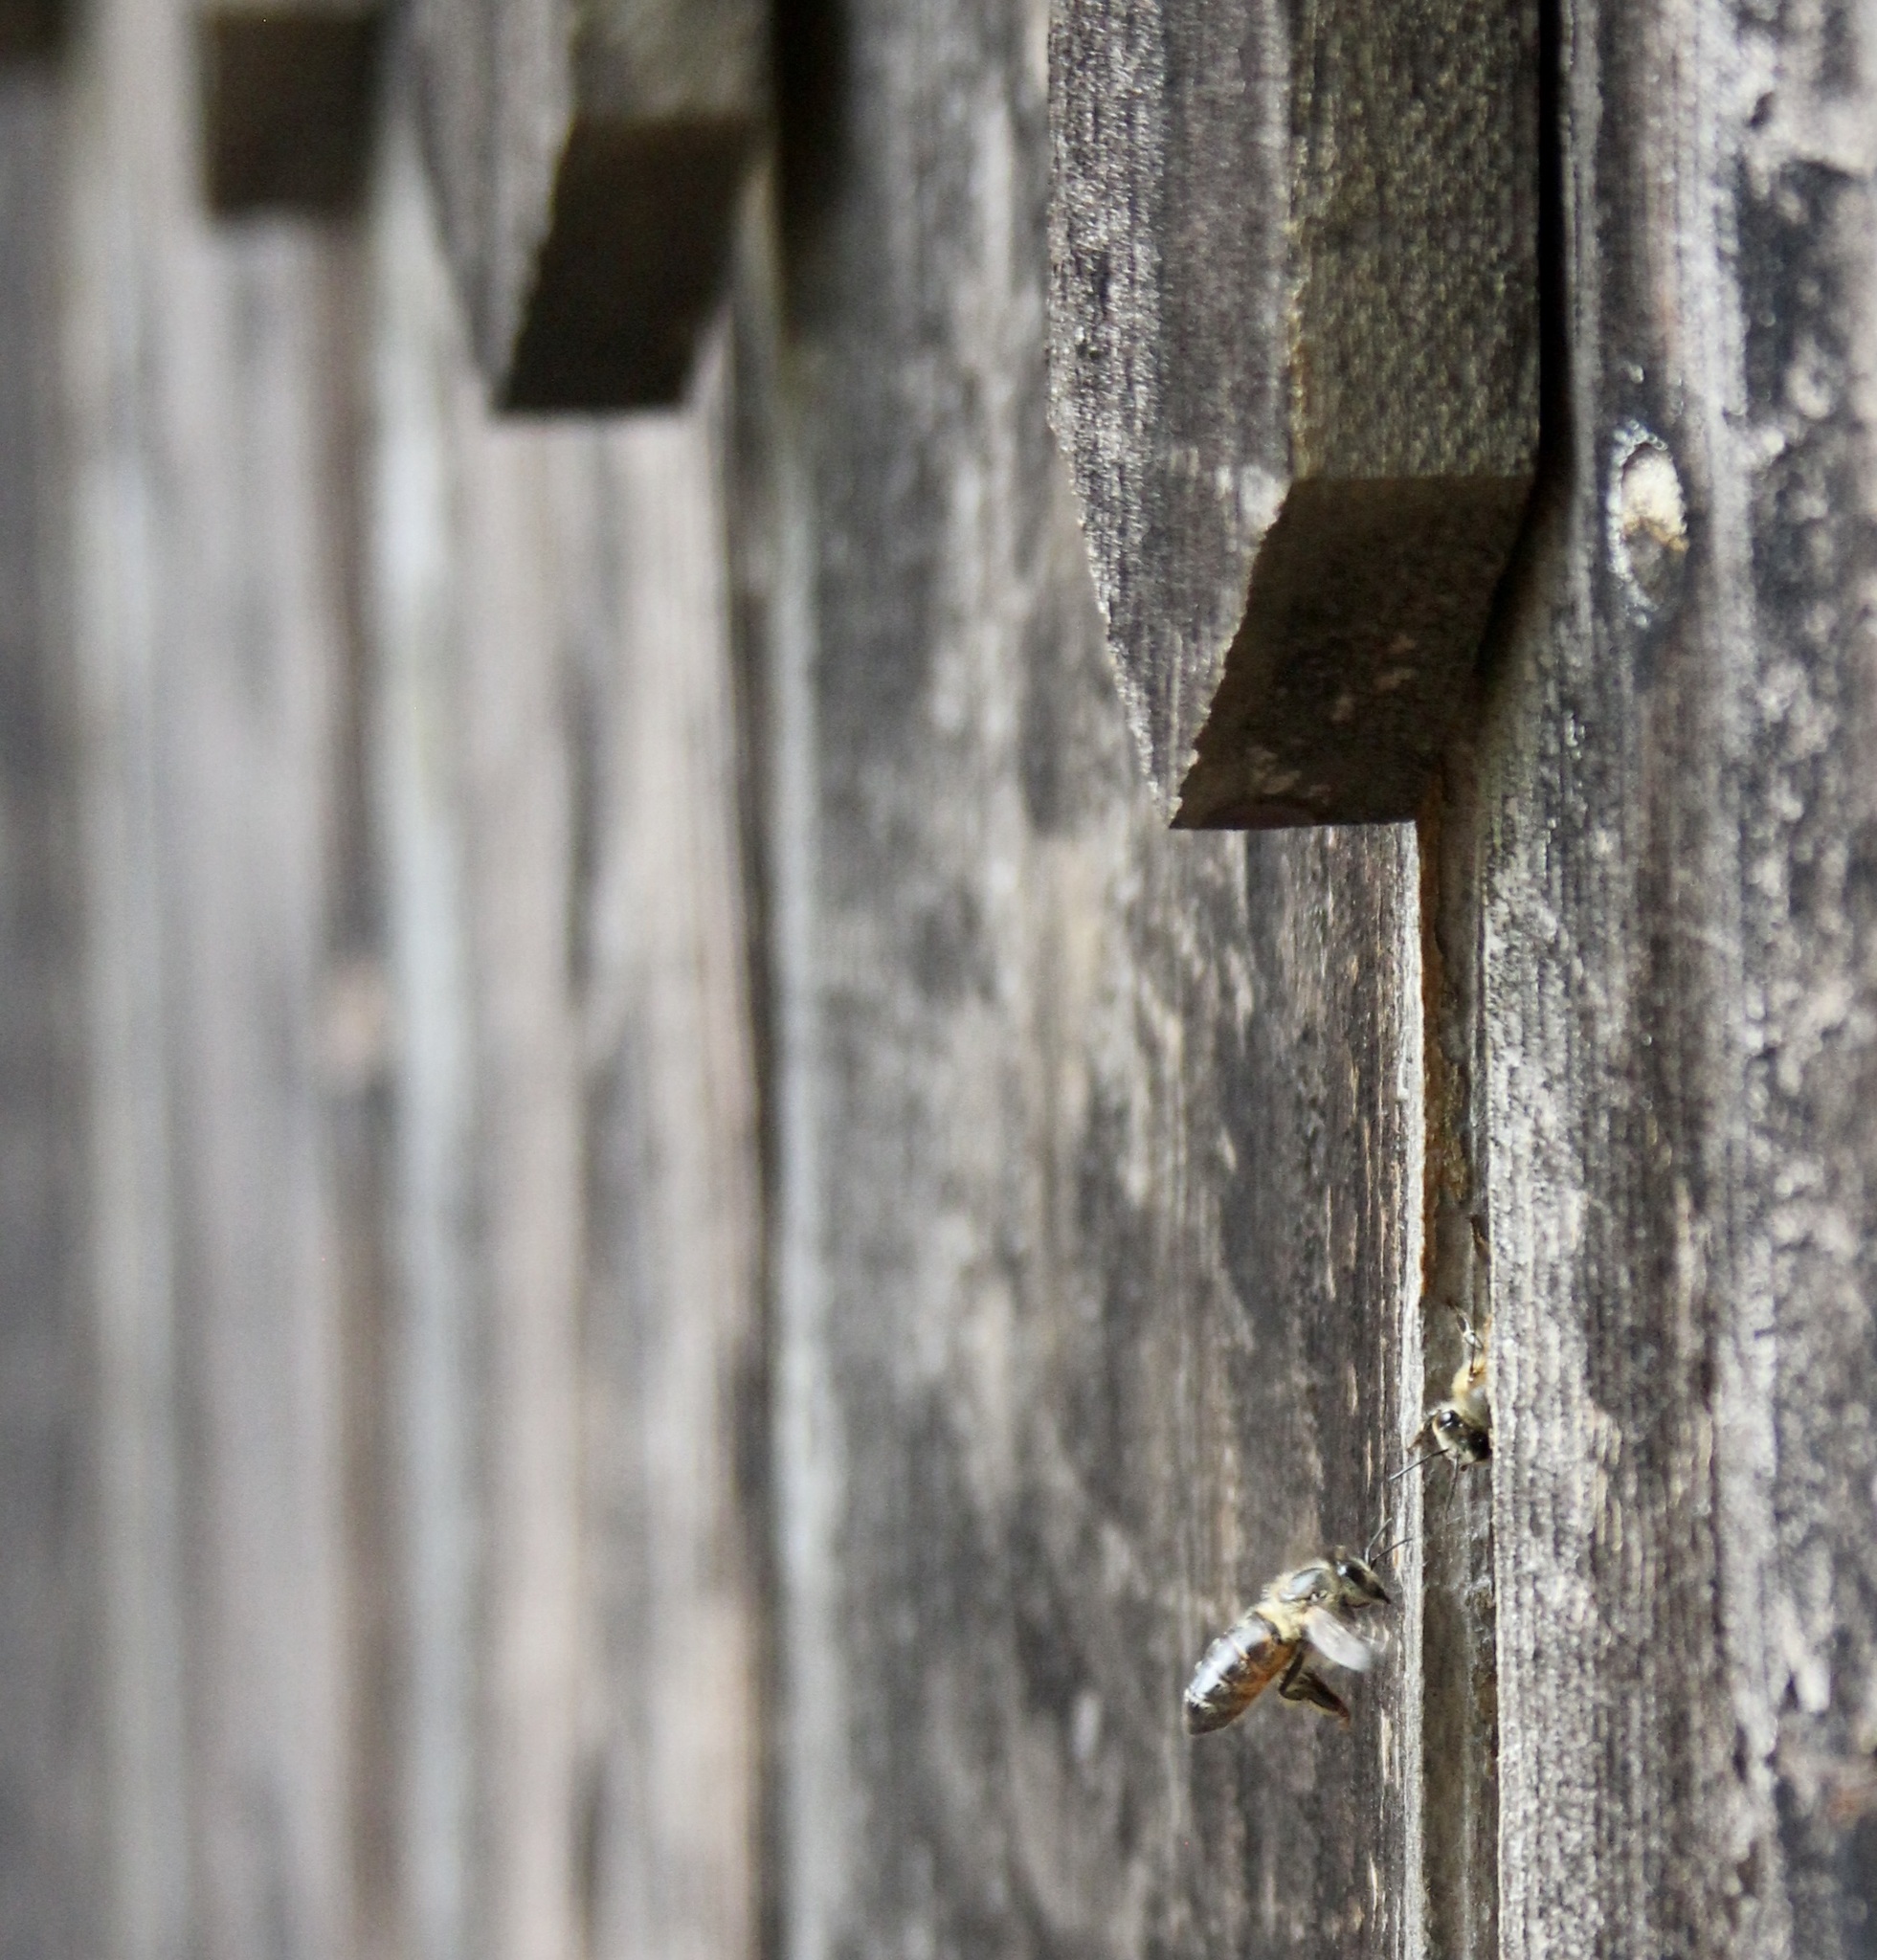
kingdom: Animalia
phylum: Arthropoda
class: Insecta
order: Hymenoptera
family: Apidae
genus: Apis
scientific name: Apis mellifera
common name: Honey bee
